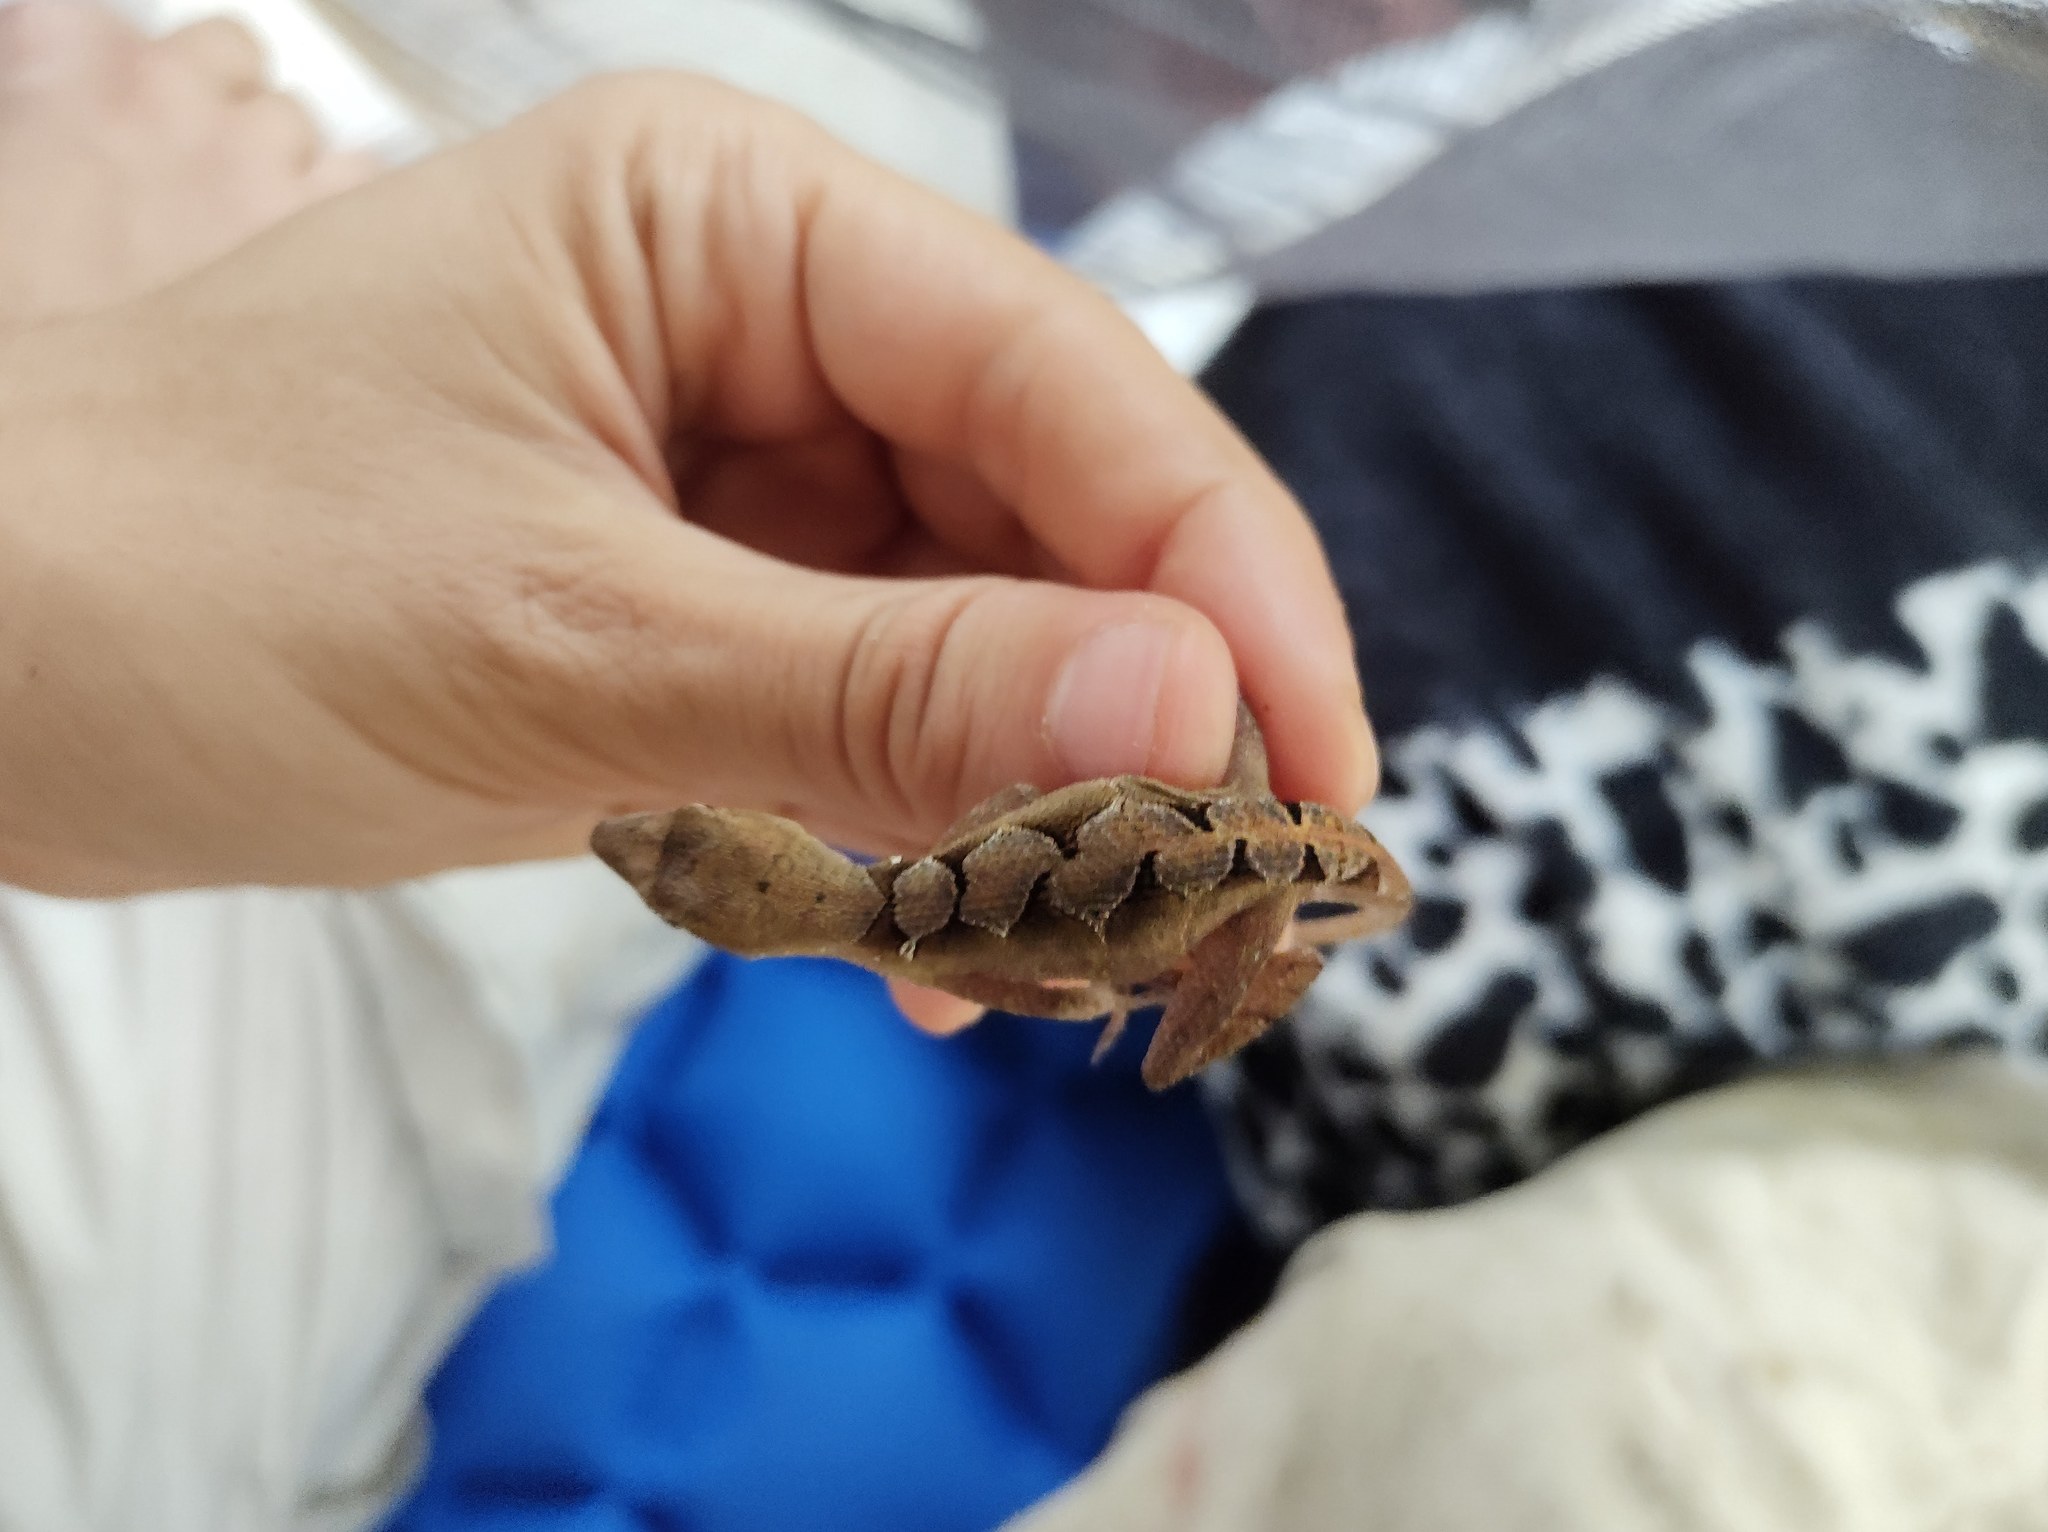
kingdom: Animalia
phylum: Chordata
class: Squamata
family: Dactyloidae
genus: Anolis
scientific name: Anolis tropidonotus
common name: Greater scaly anole
